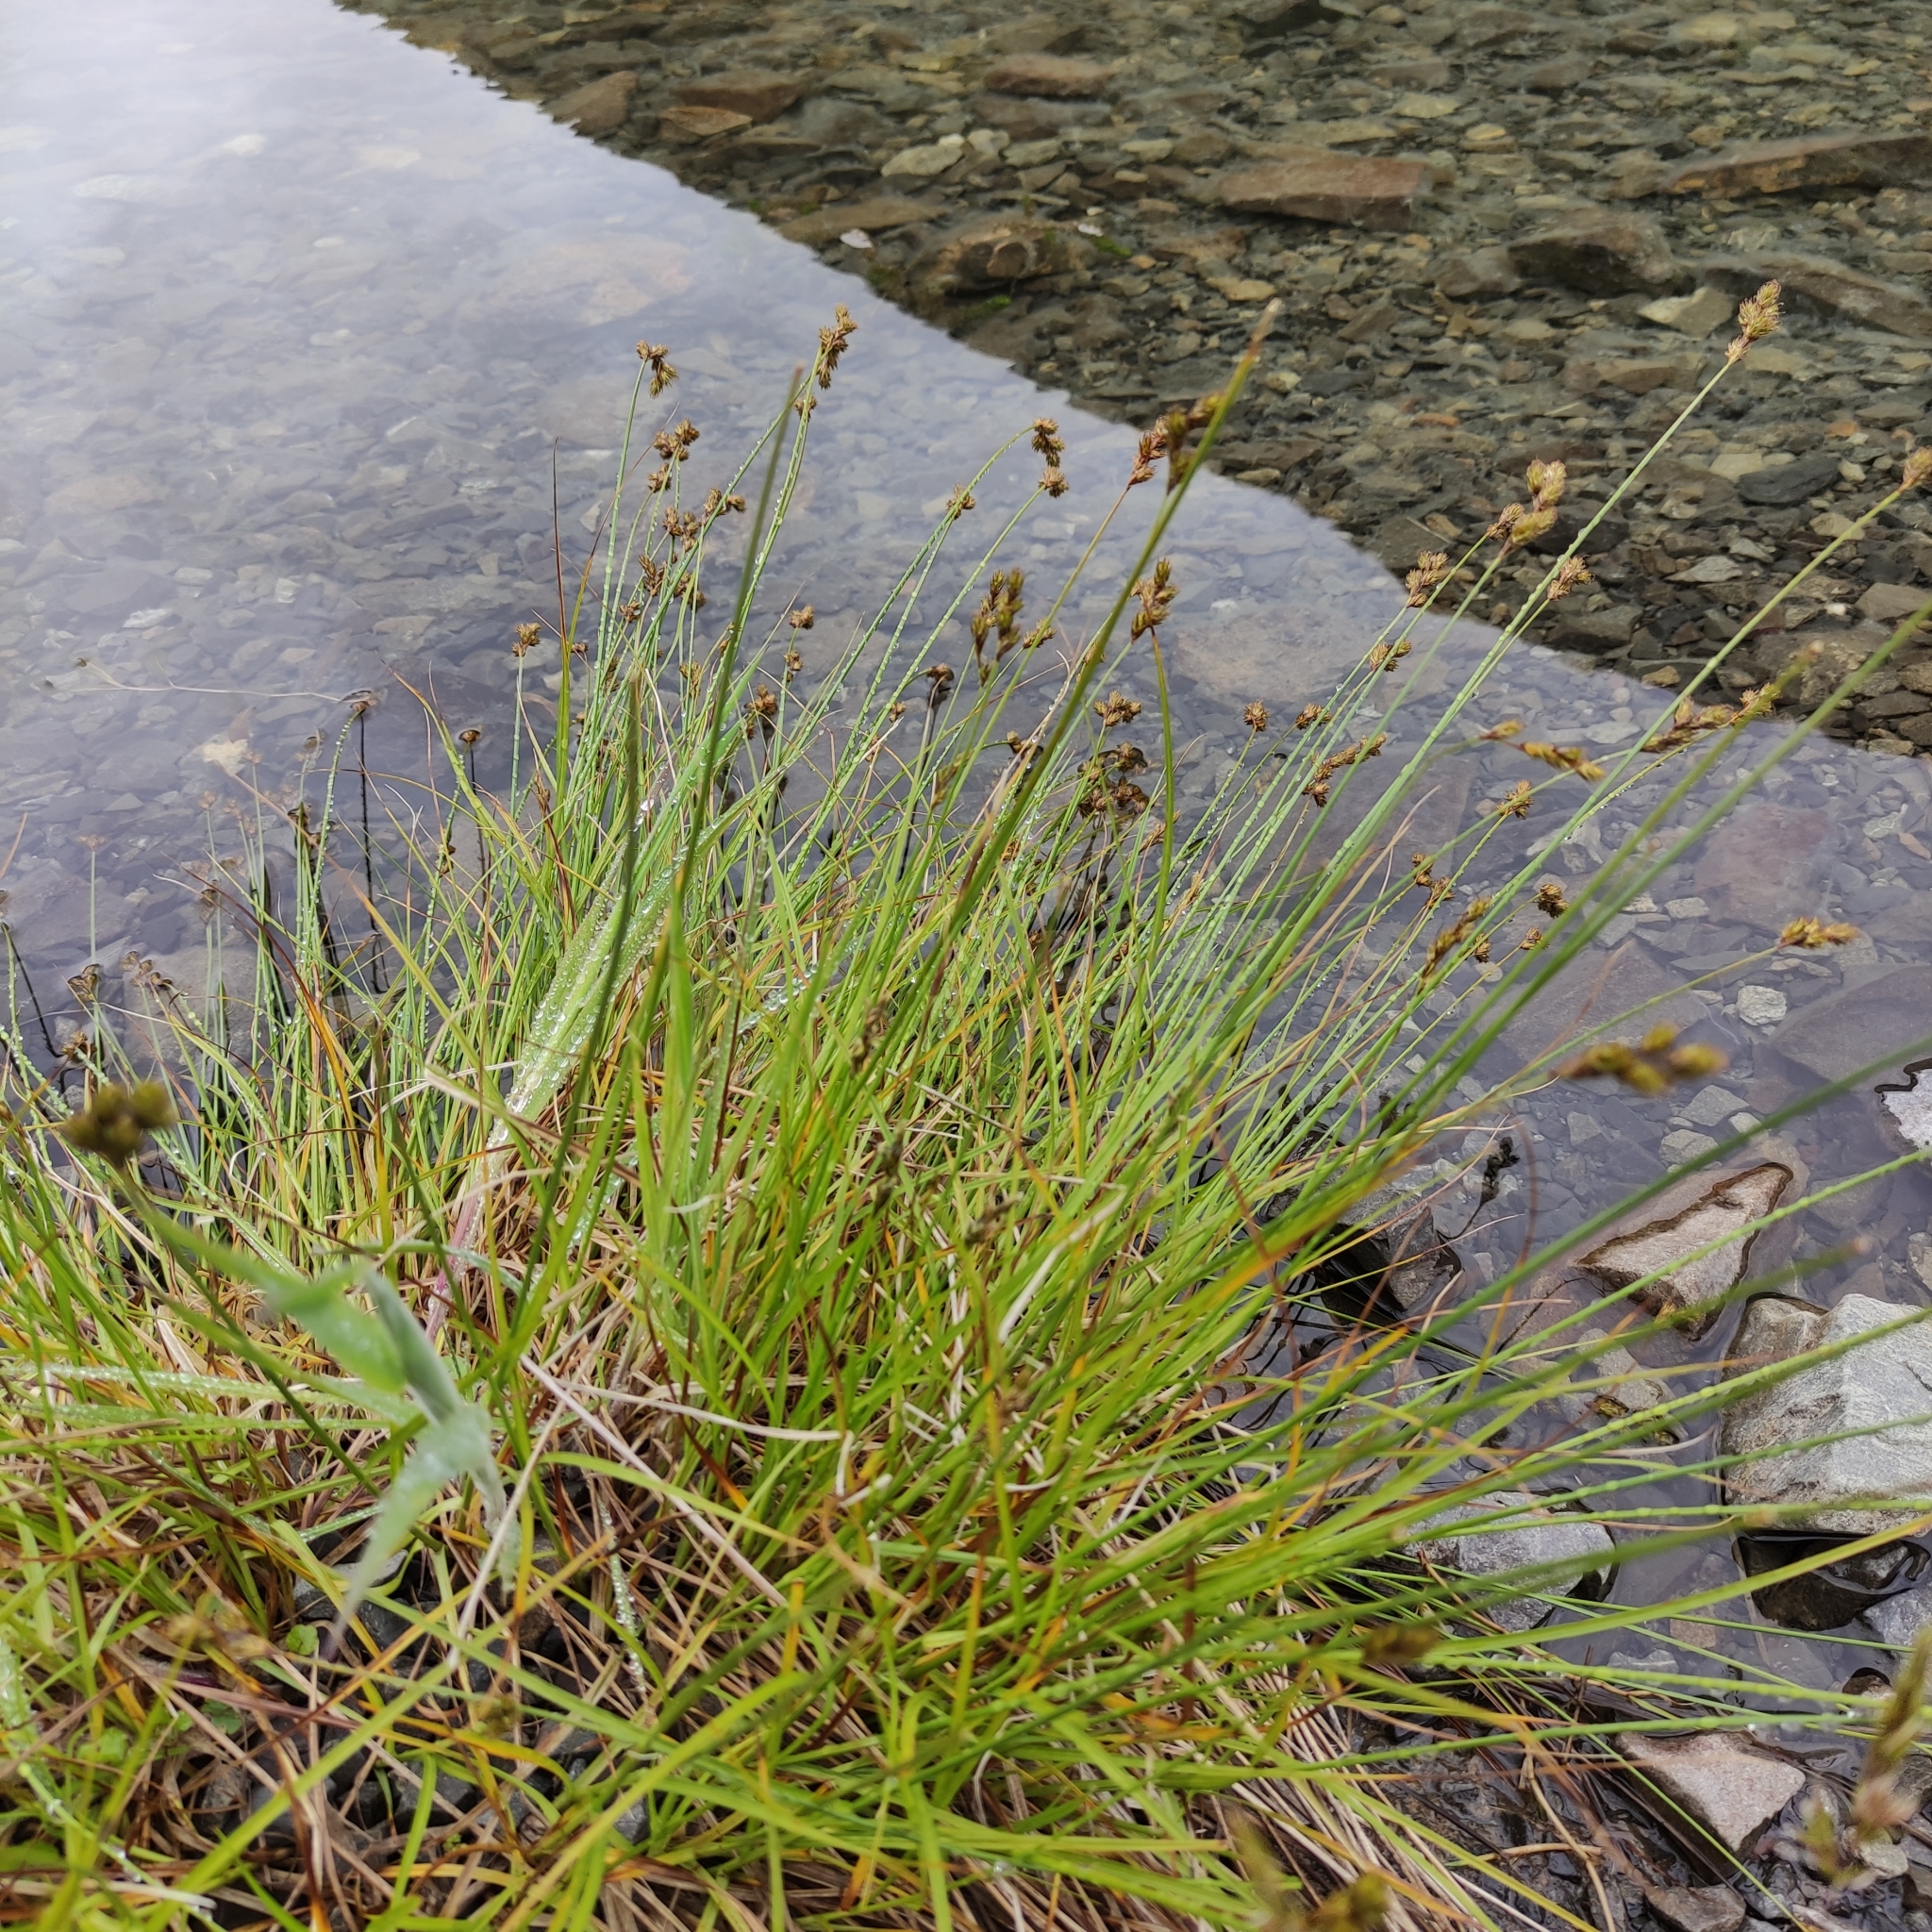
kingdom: Plantae
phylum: Tracheophyta
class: Liliopsida
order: Poales
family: Cyperaceae
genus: Carex
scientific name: Carex leporina
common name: Oval sedge
